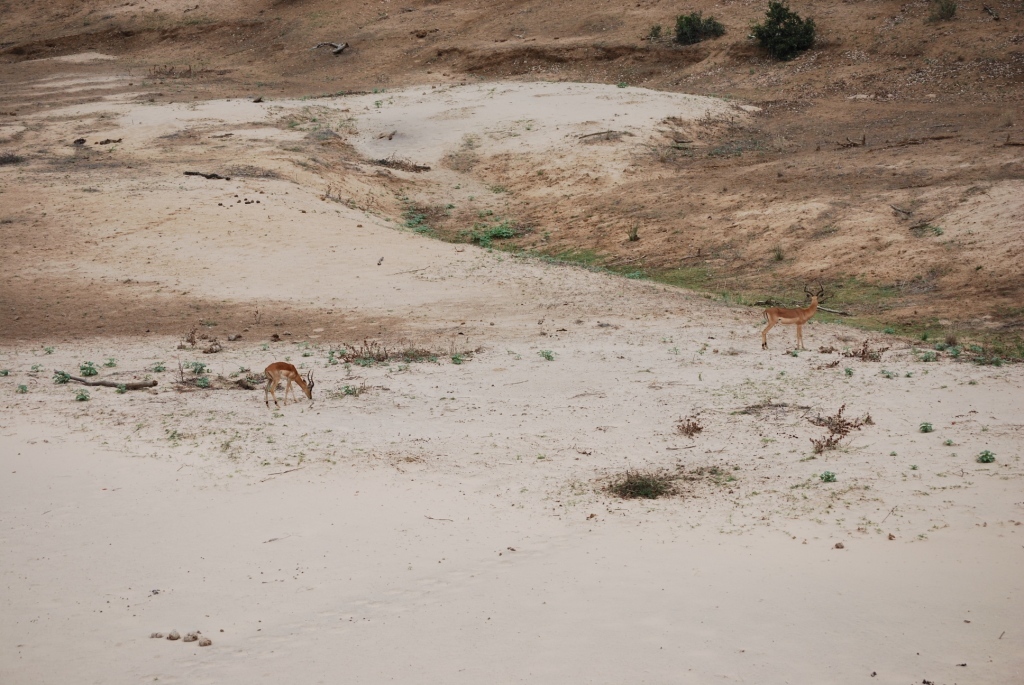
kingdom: Animalia
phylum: Chordata
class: Mammalia
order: Artiodactyla
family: Bovidae
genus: Aepyceros
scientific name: Aepyceros melampus
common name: Impala
